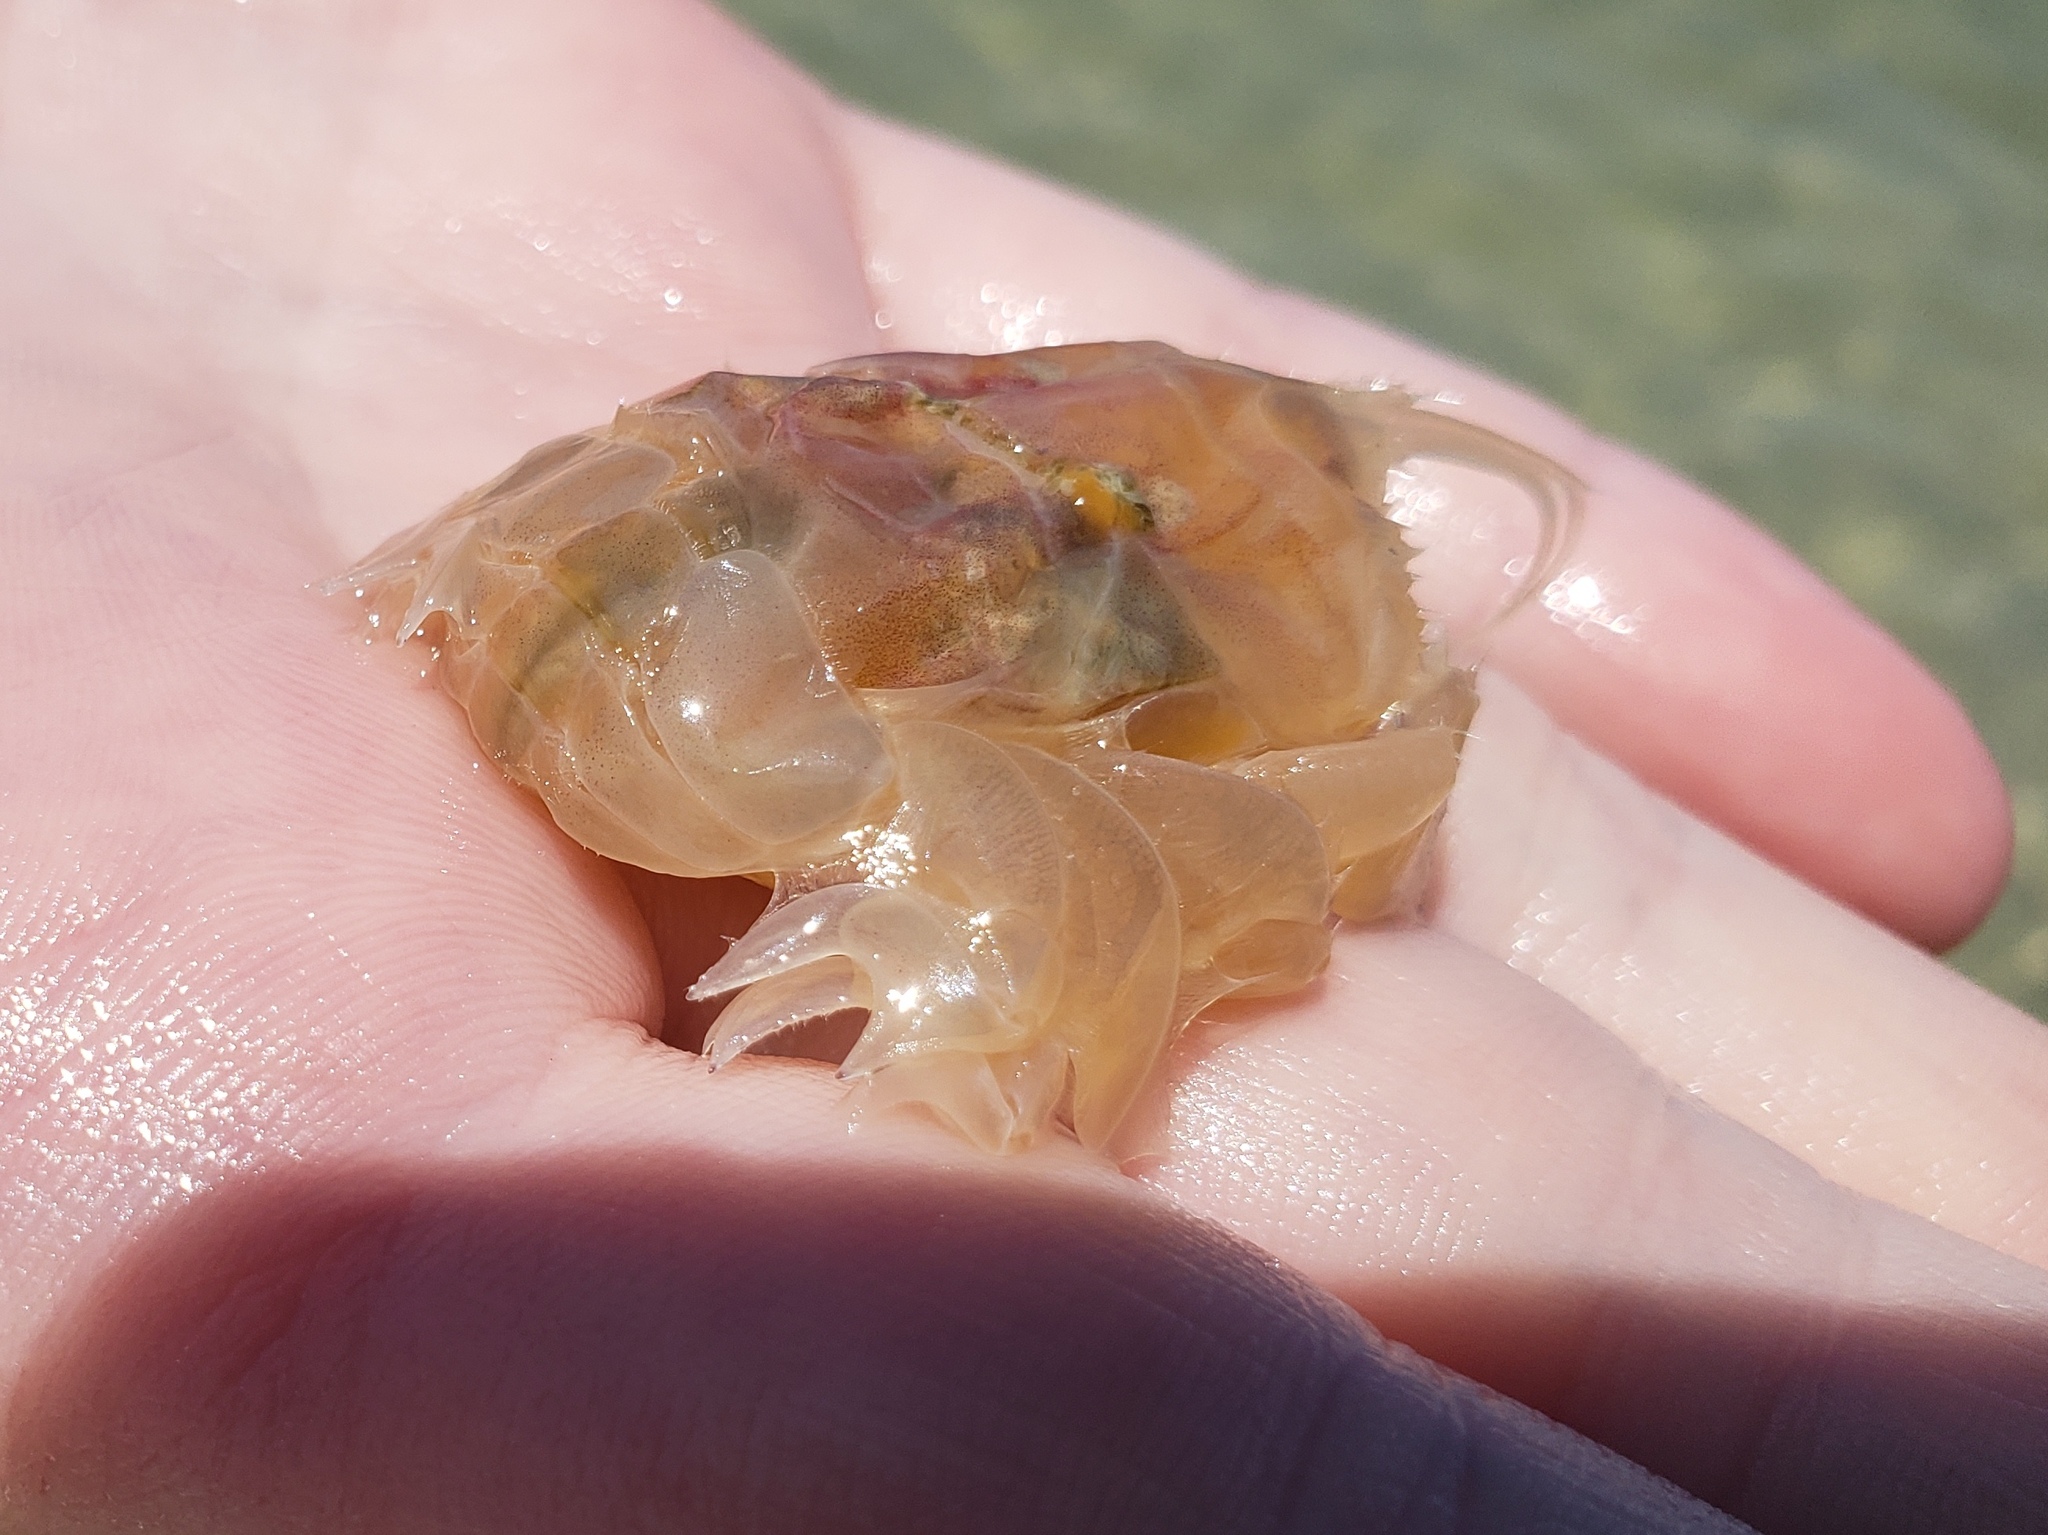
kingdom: Animalia
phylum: Arthropoda
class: Malacostraca
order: Decapoda
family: Albuneidae
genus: Lepidopa
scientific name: Lepidopa benedicti
